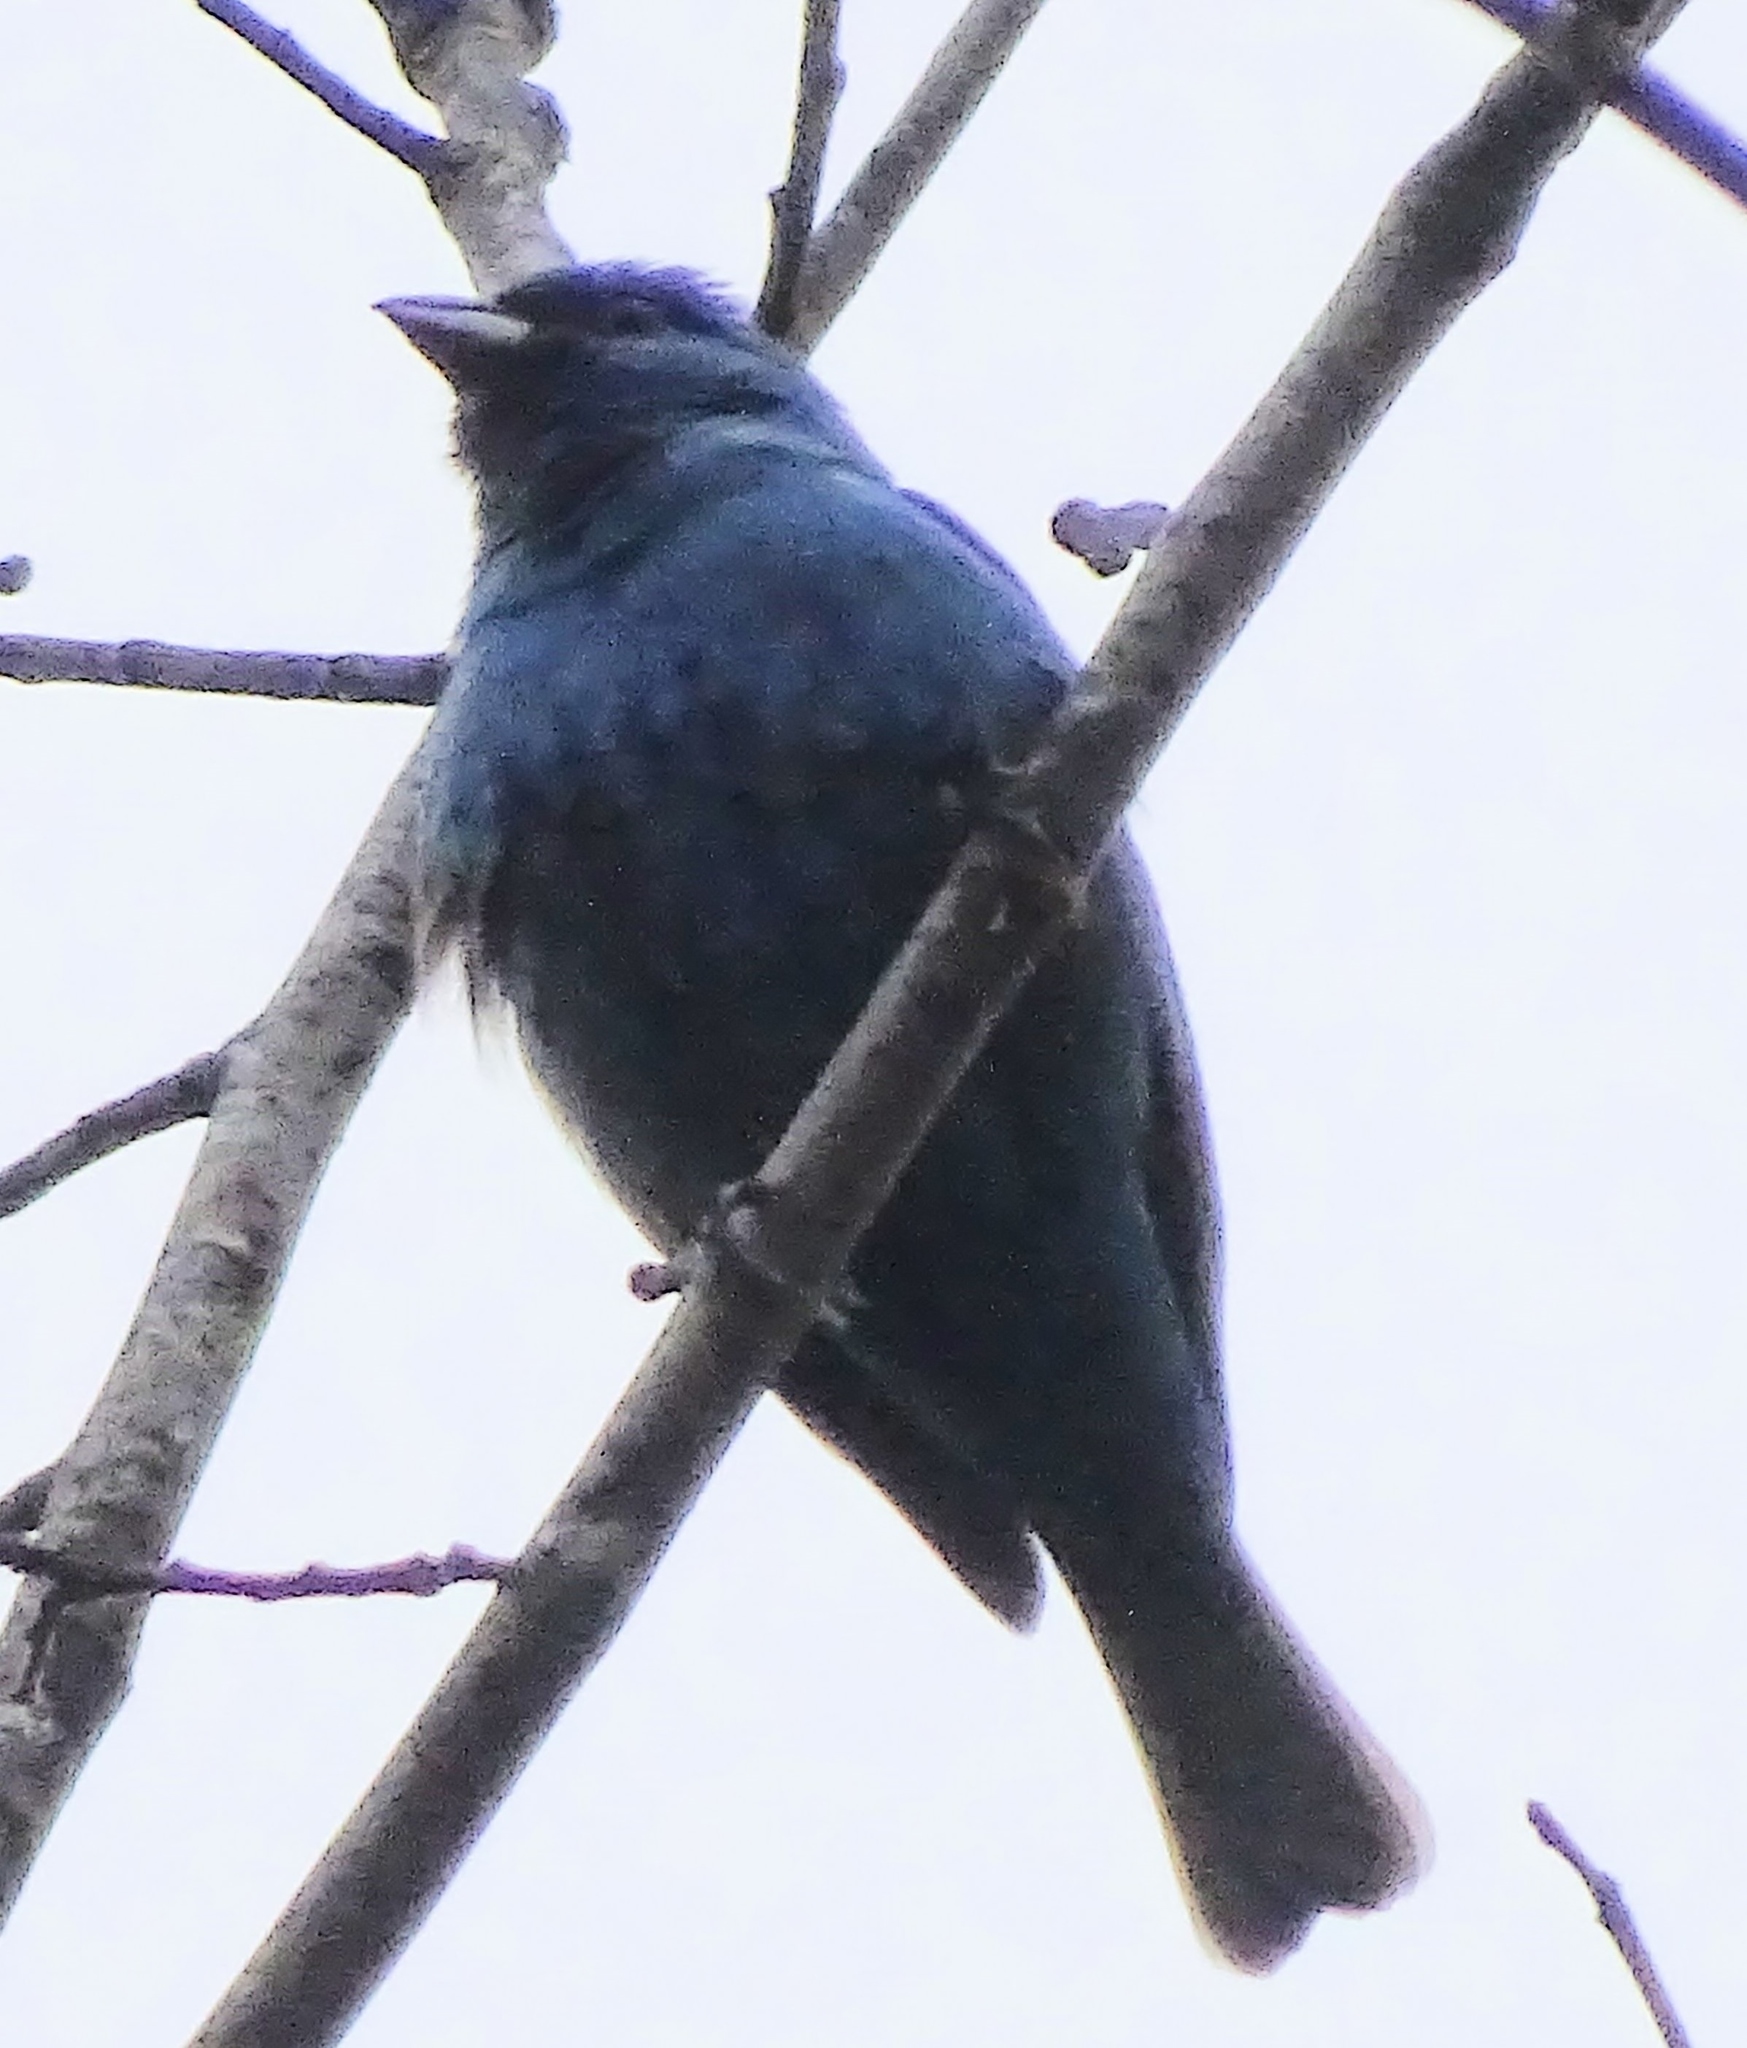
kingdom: Animalia
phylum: Chordata
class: Aves
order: Passeriformes
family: Cardinalidae
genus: Passerina
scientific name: Passerina cyanea
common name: Indigo bunting
